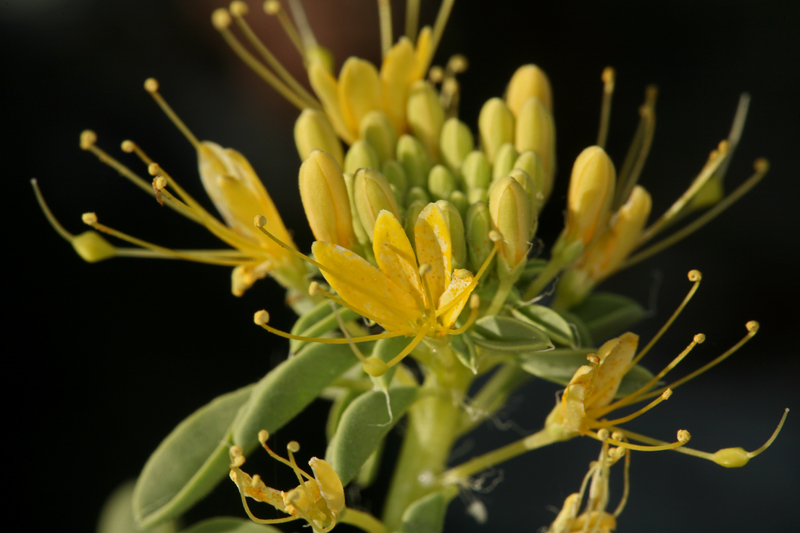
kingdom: Plantae
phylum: Tracheophyta
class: Magnoliopsida
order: Brassicales
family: Cleomaceae
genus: Cleomella
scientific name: Cleomella obtusifolia
